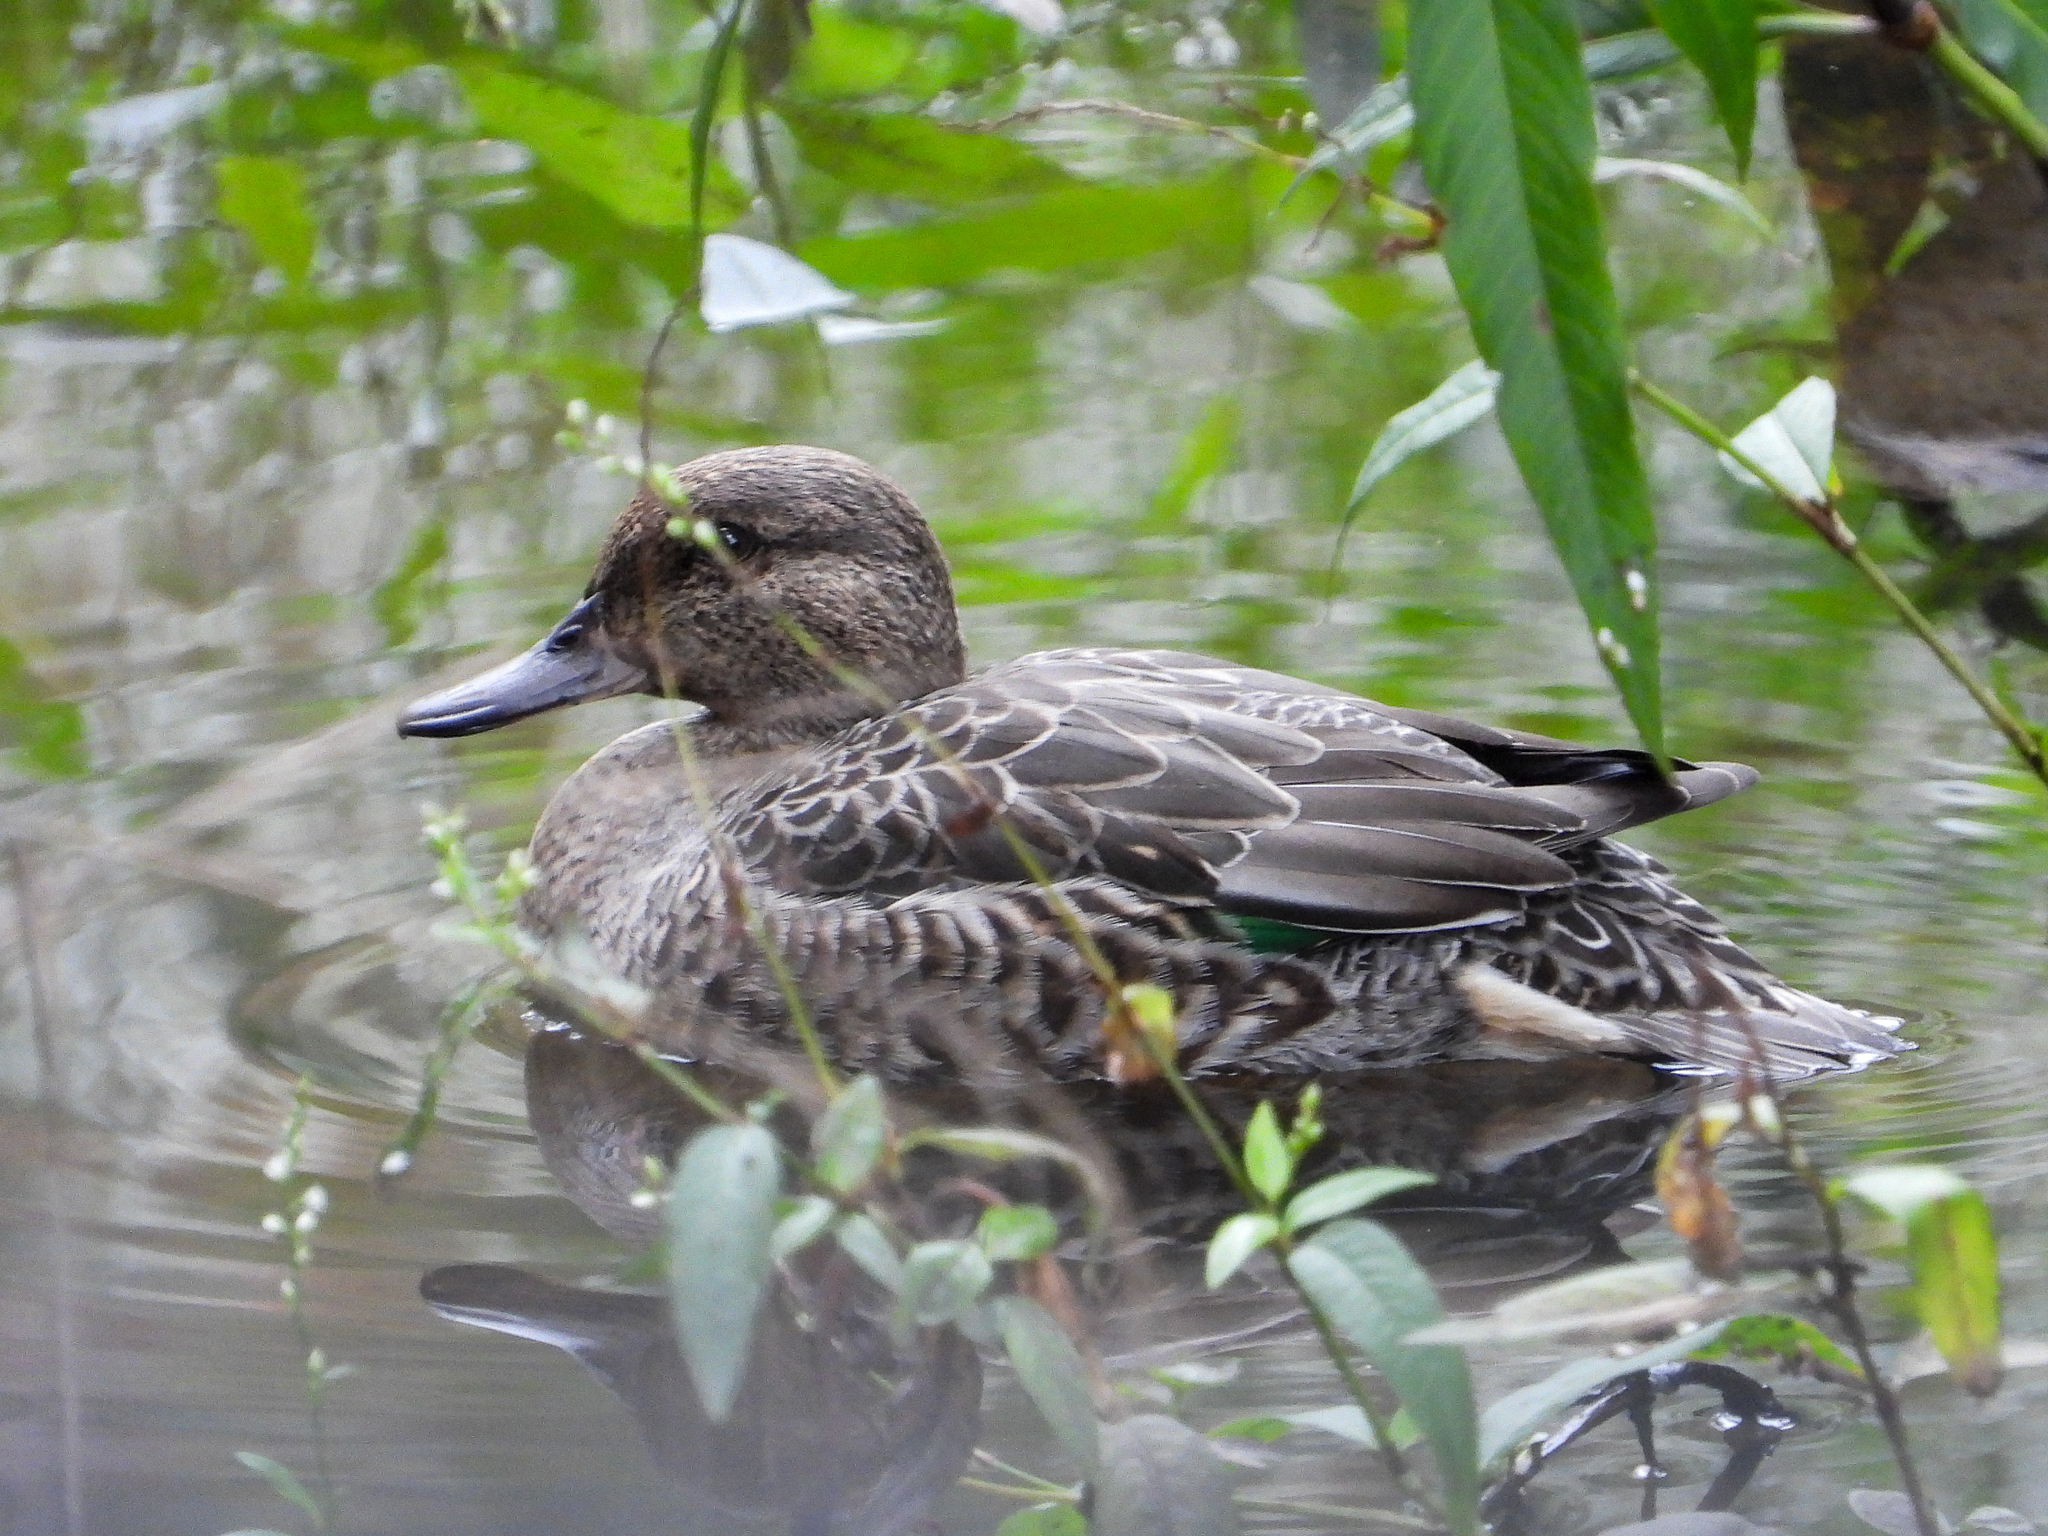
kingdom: Animalia
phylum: Chordata
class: Aves
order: Anseriformes
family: Anatidae
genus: Anas
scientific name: Anas crecca
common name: Eurasian teal
